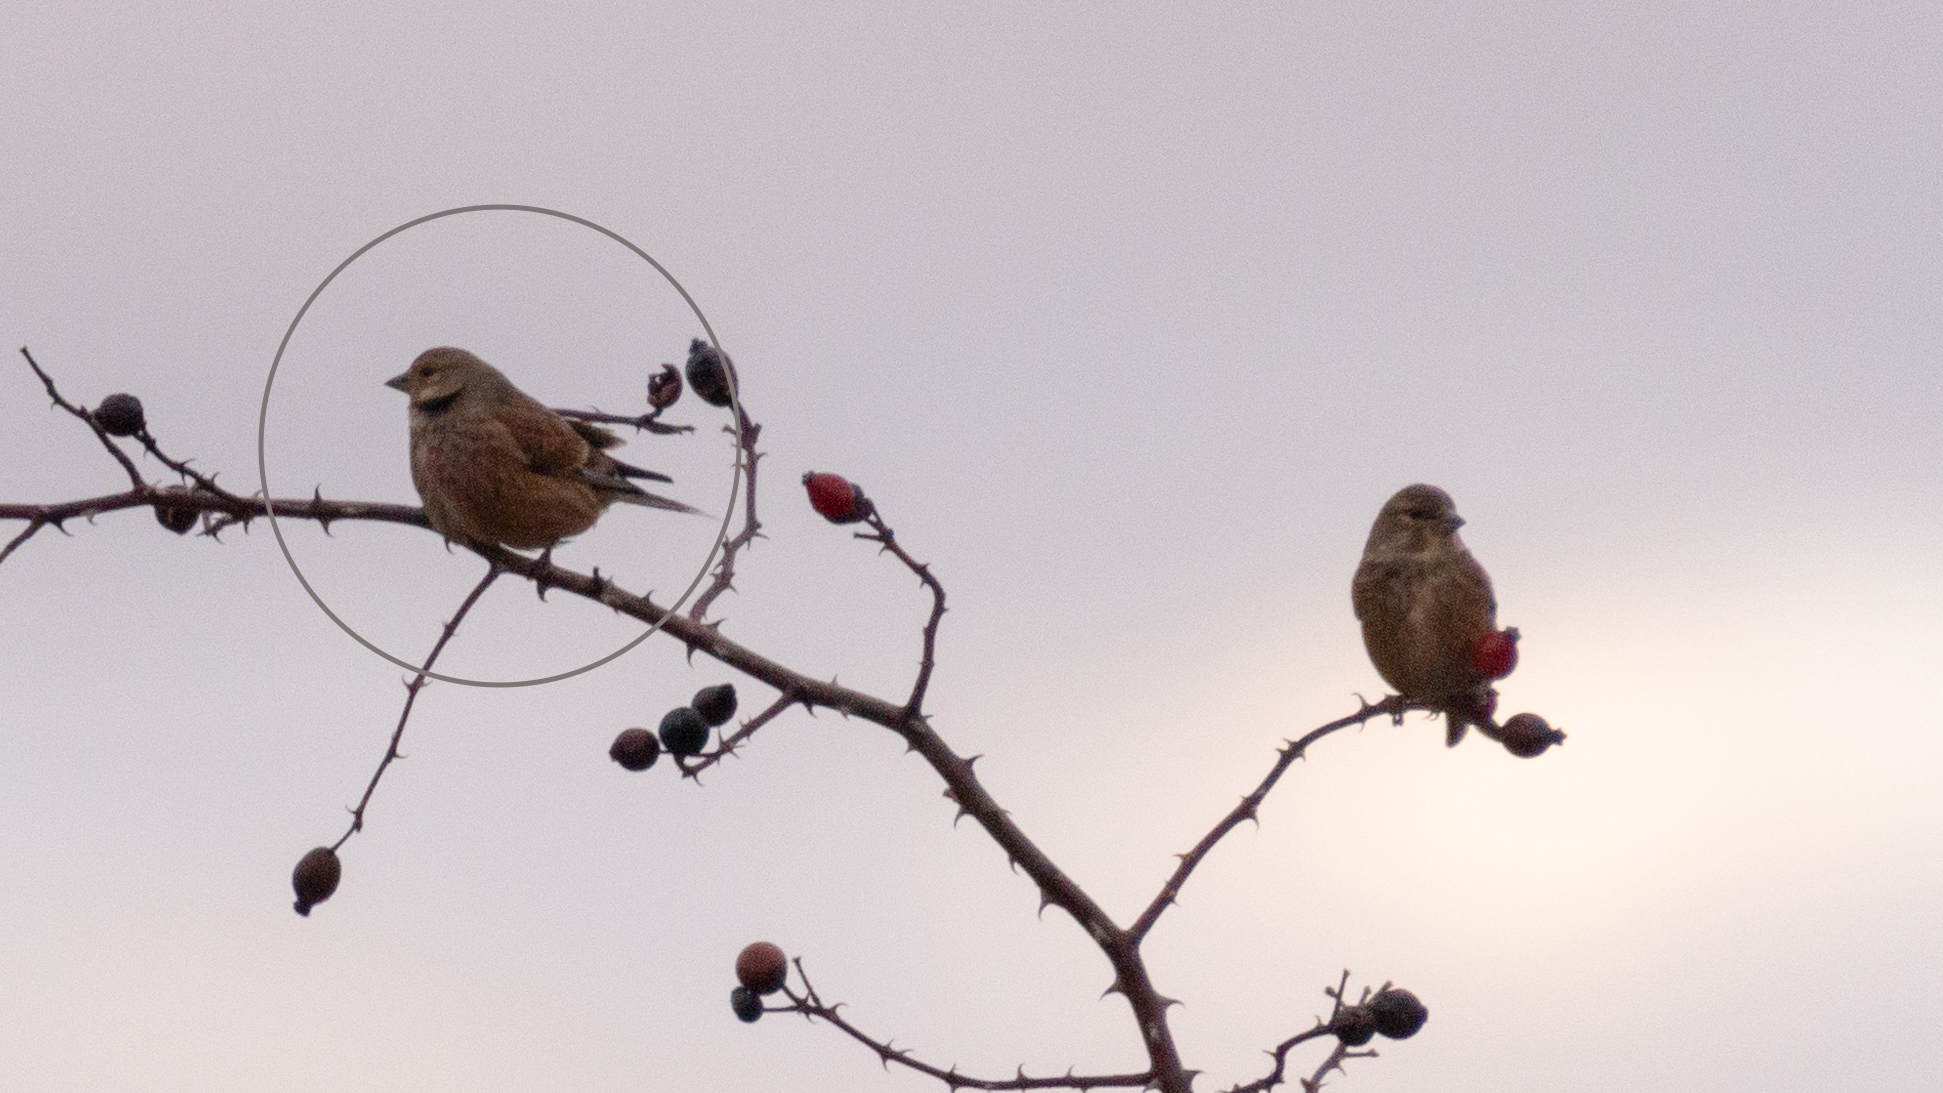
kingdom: Animalia
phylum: Chordata
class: Aves
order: Passeriformes
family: Fringillidae
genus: Linaria
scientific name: Linaria cannabina
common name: Common linnet
